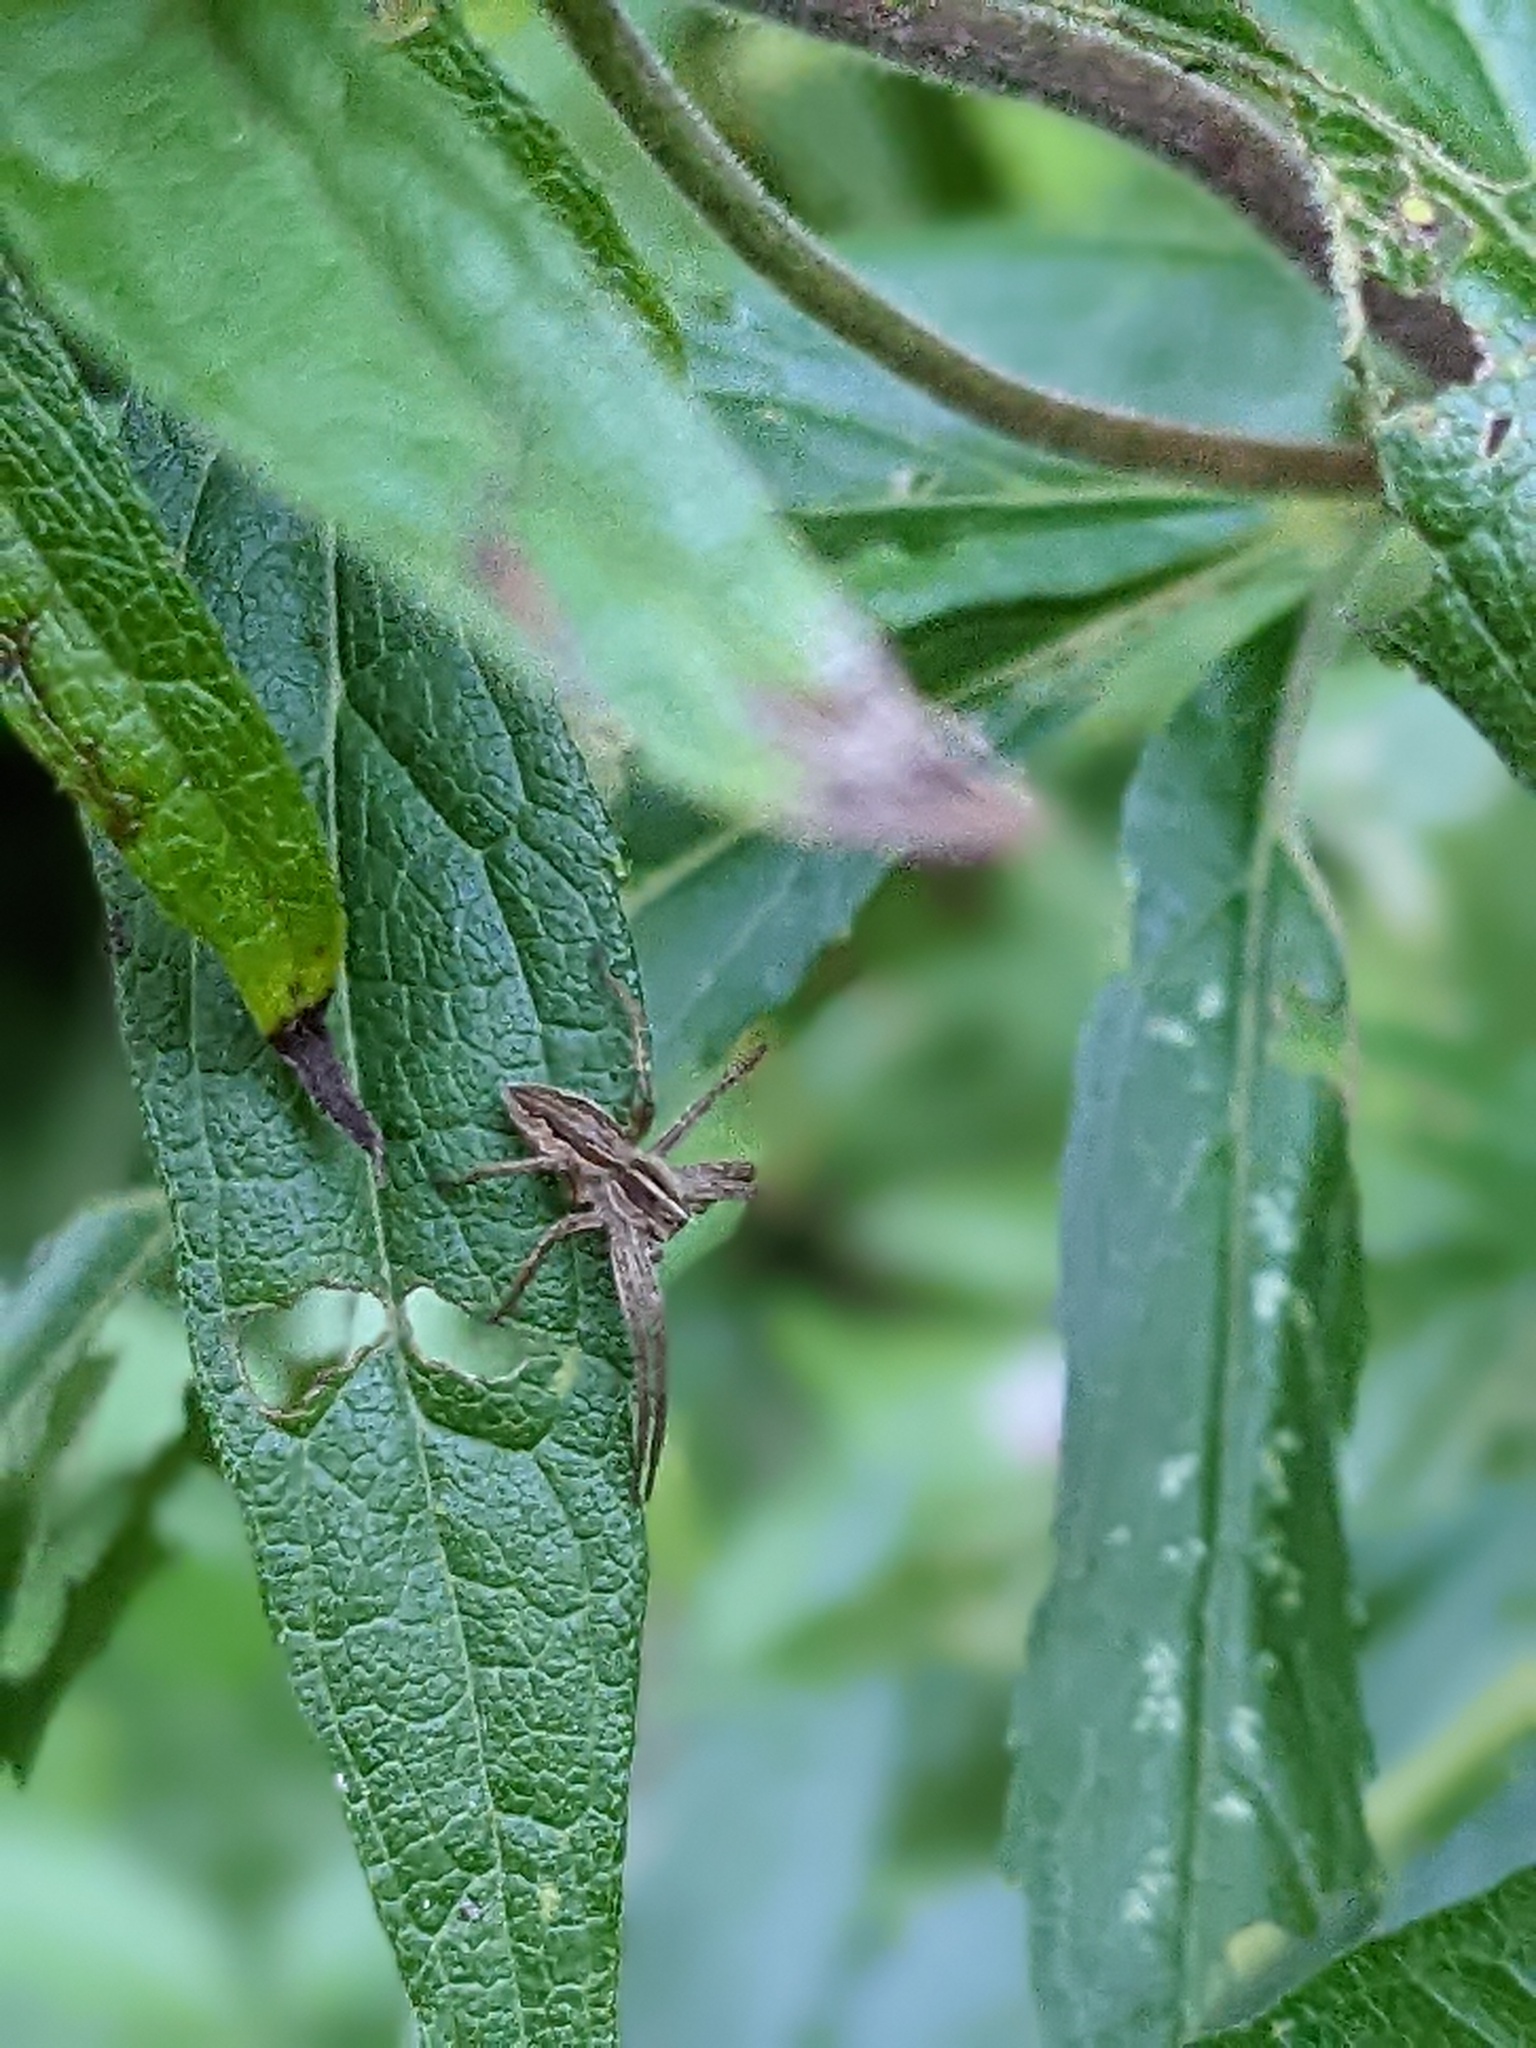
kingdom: Animalia
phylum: Arthropoda
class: Arachnida
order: Araneae
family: Pisauridae
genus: Pisaura
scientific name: Pisaura mirabilis
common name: Tent spider
